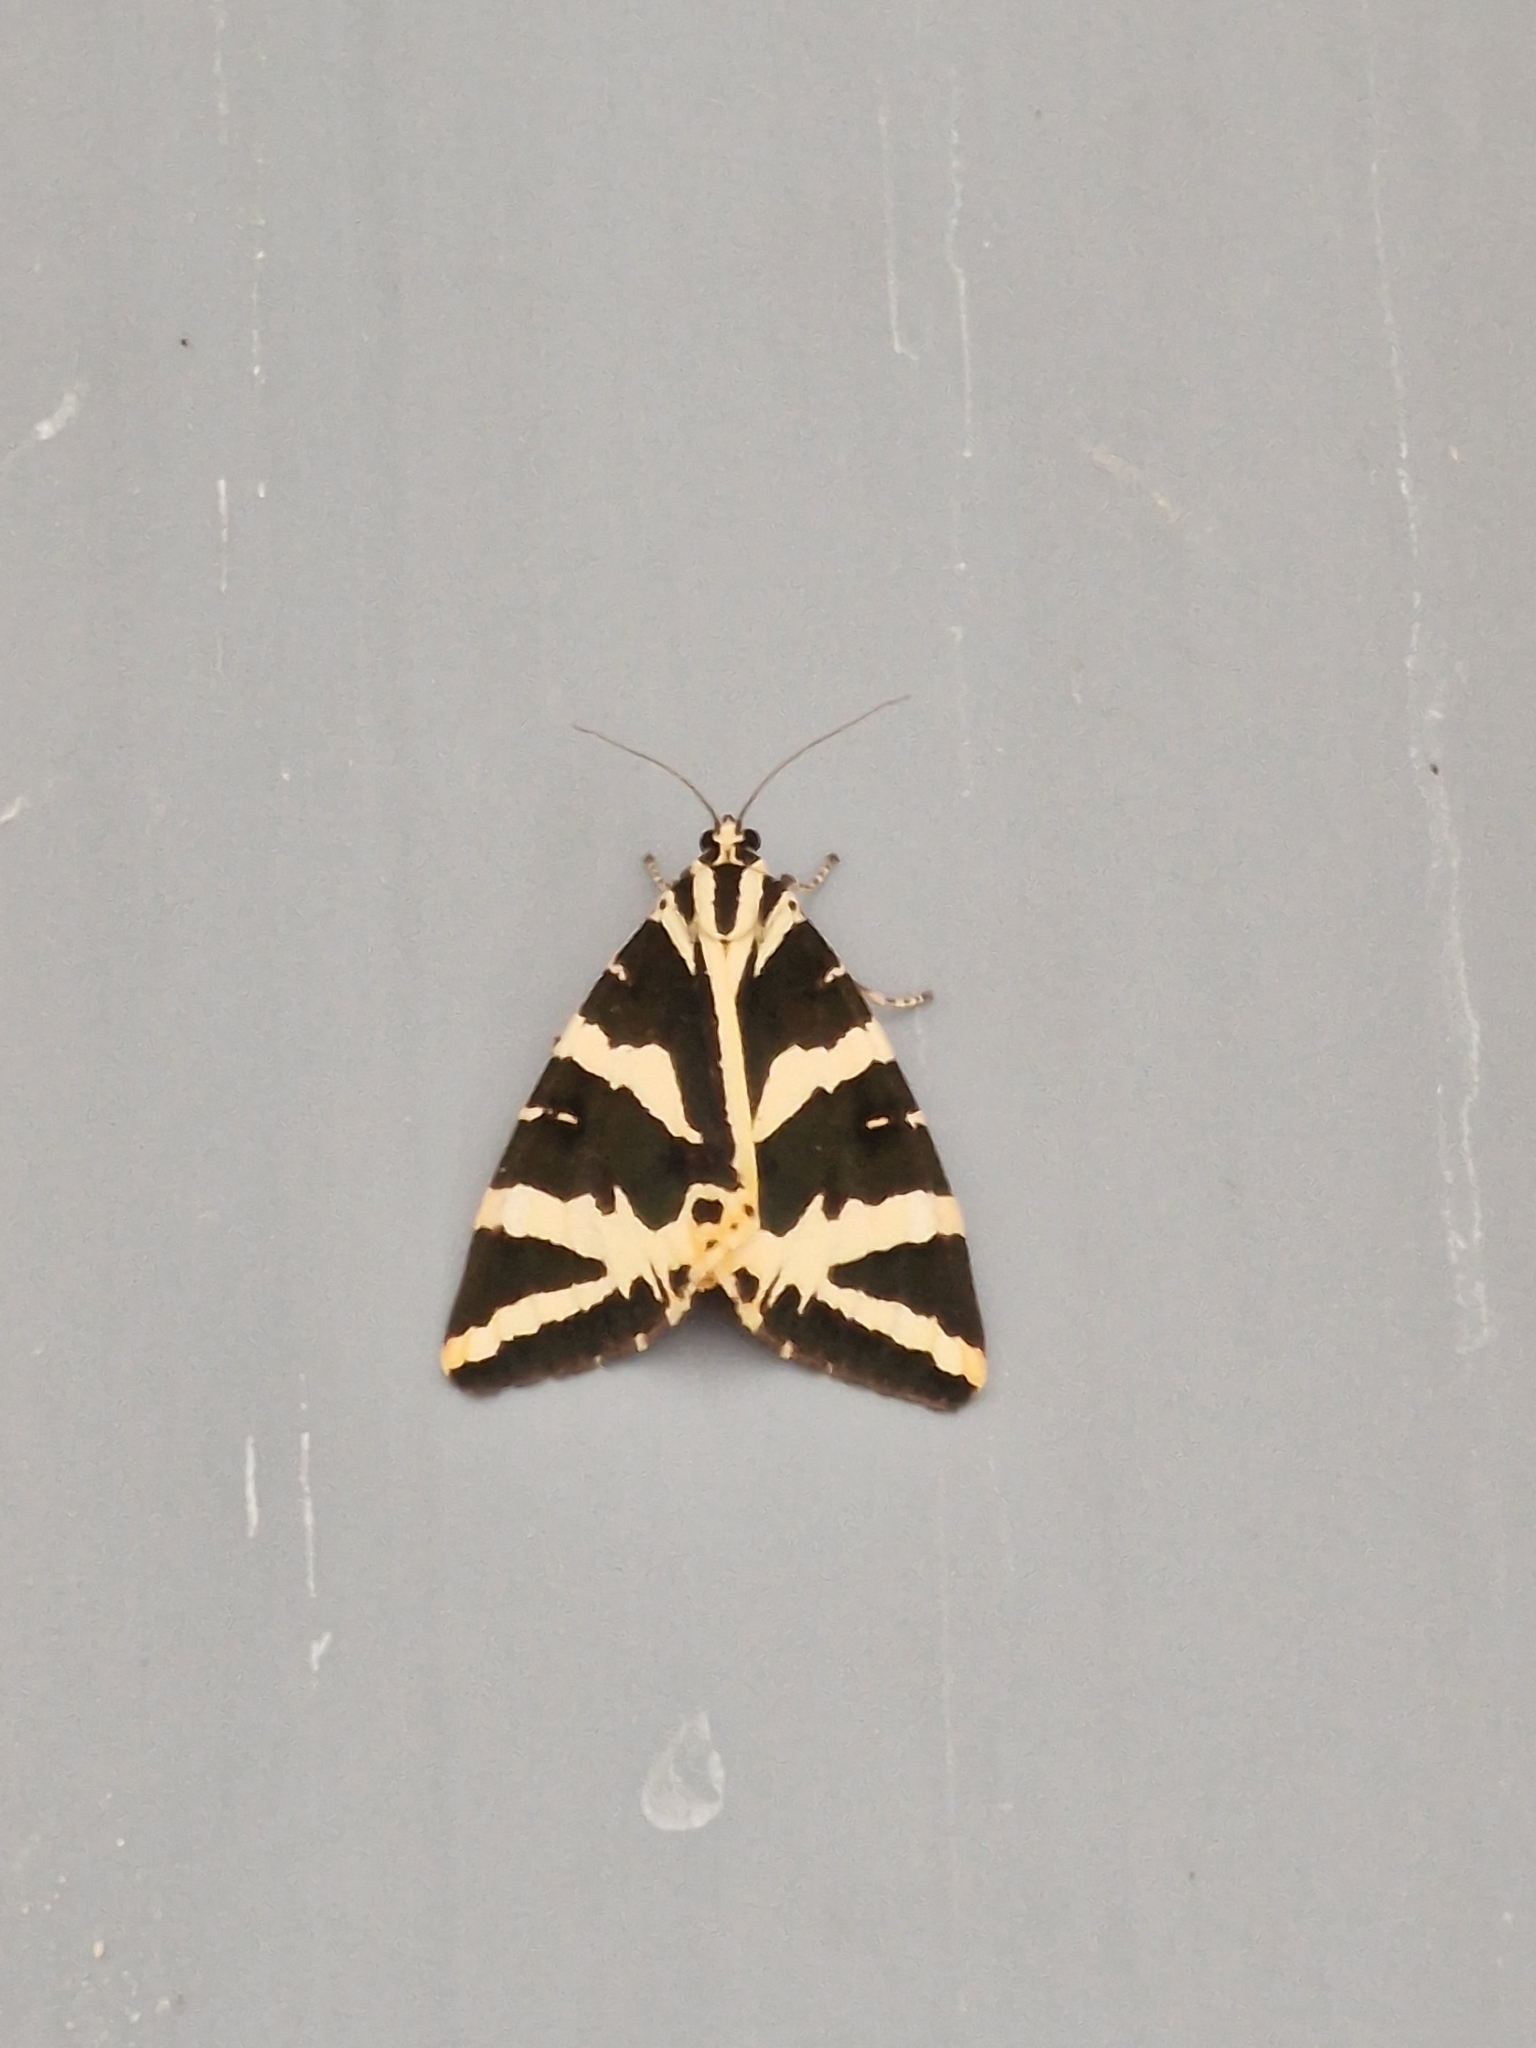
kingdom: Animalia
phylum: Arthropoda
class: Insecta
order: Lepidoptera
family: Erebidae
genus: Euplagia
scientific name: Euplagia quadripunctaria
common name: Jersey tiger
